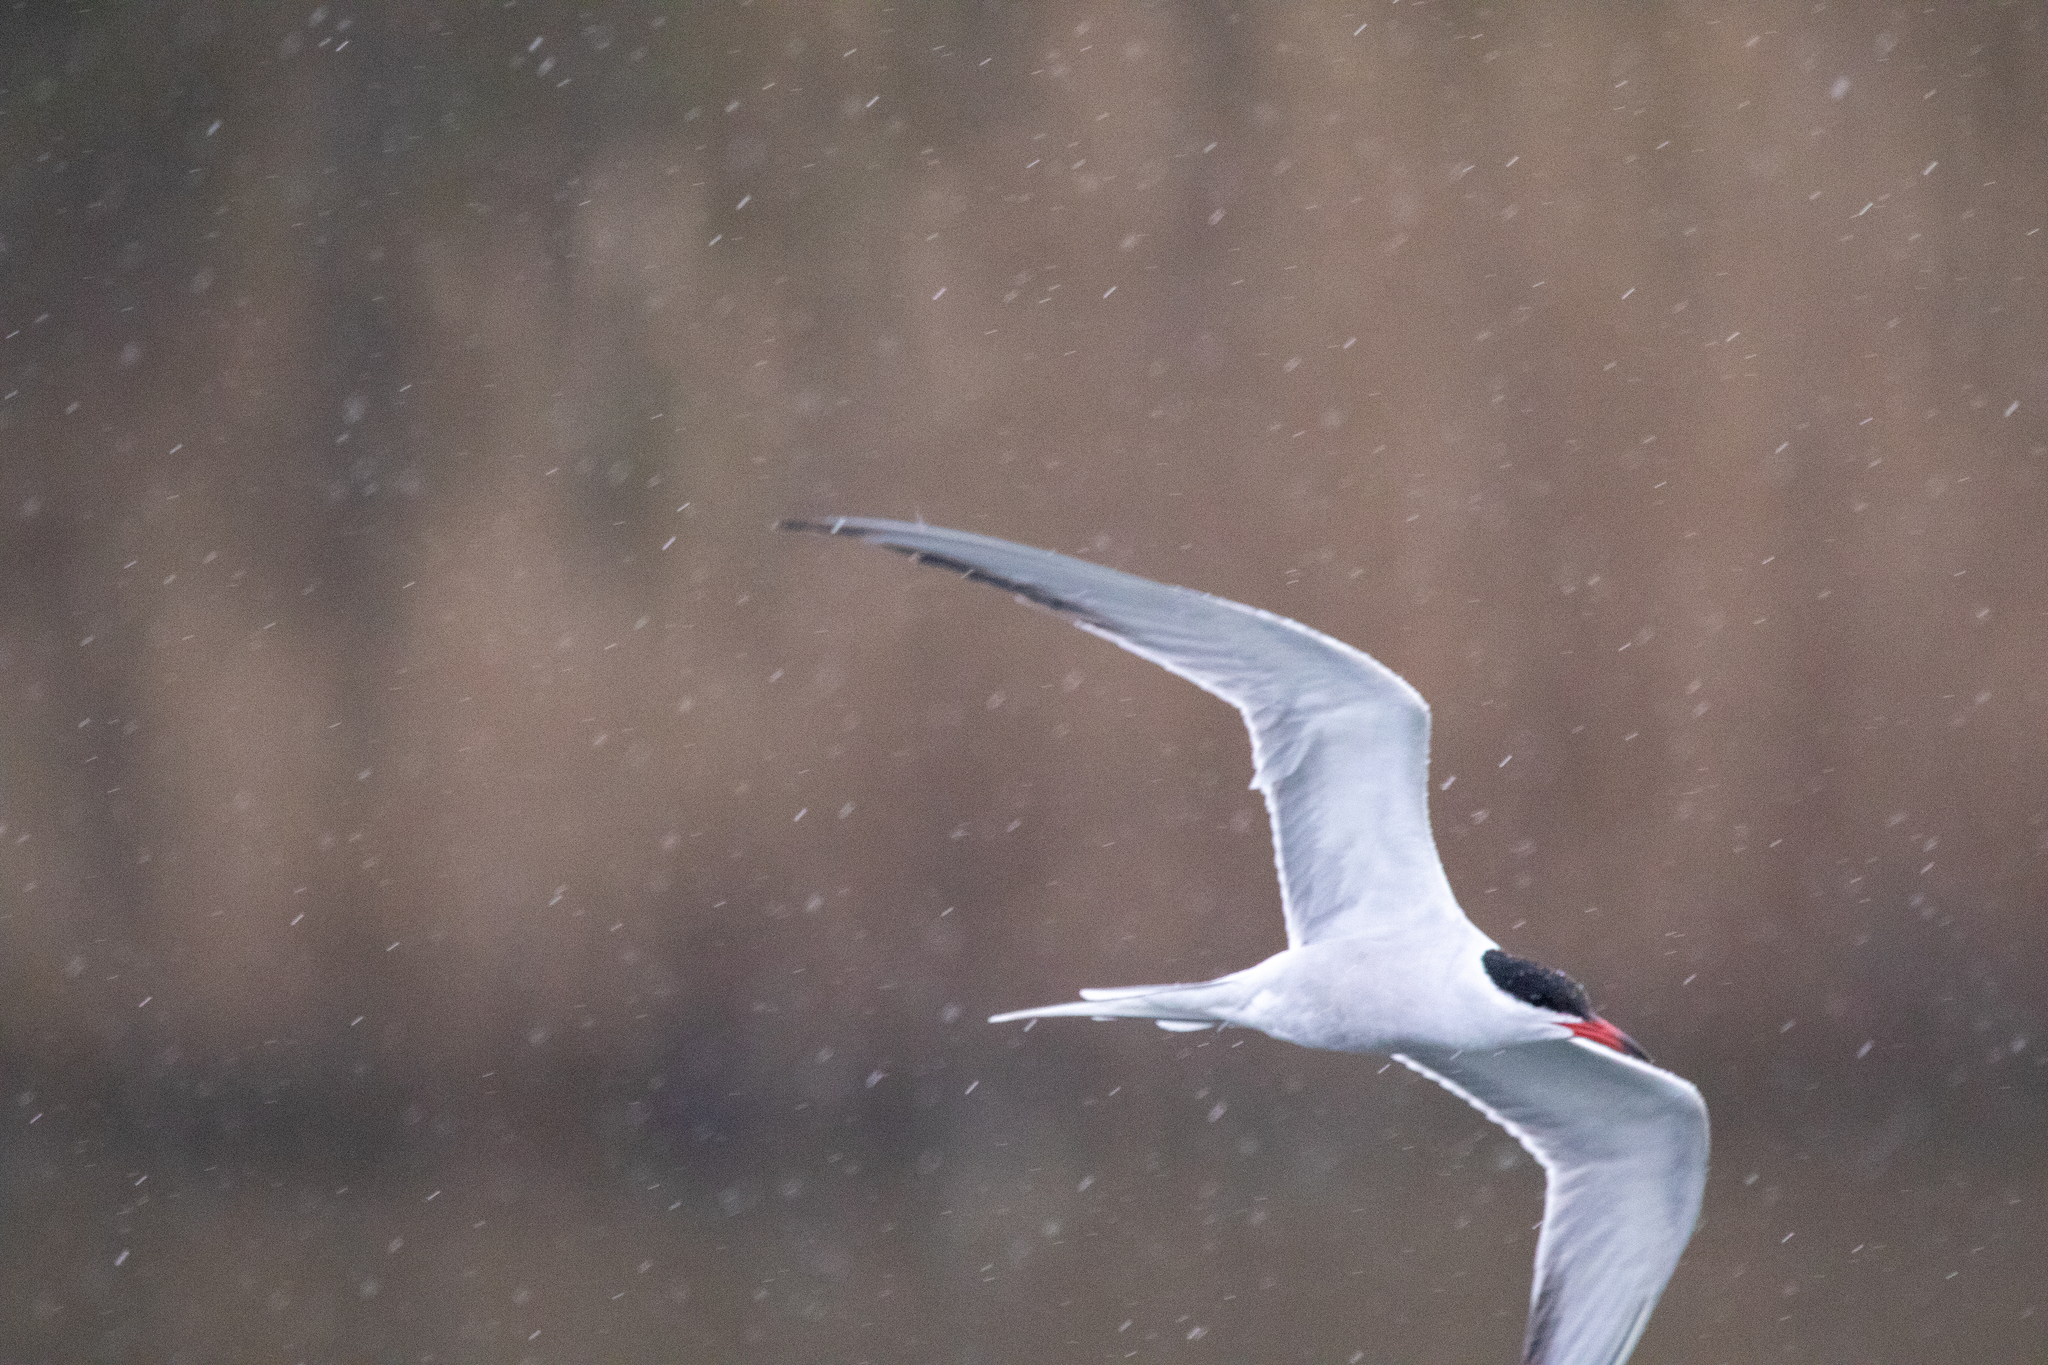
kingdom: Animalia
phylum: Chordata
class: Aves
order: Charadriiformes
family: Laridae
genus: Sterna
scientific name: Sterna hirundo
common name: Common tern
